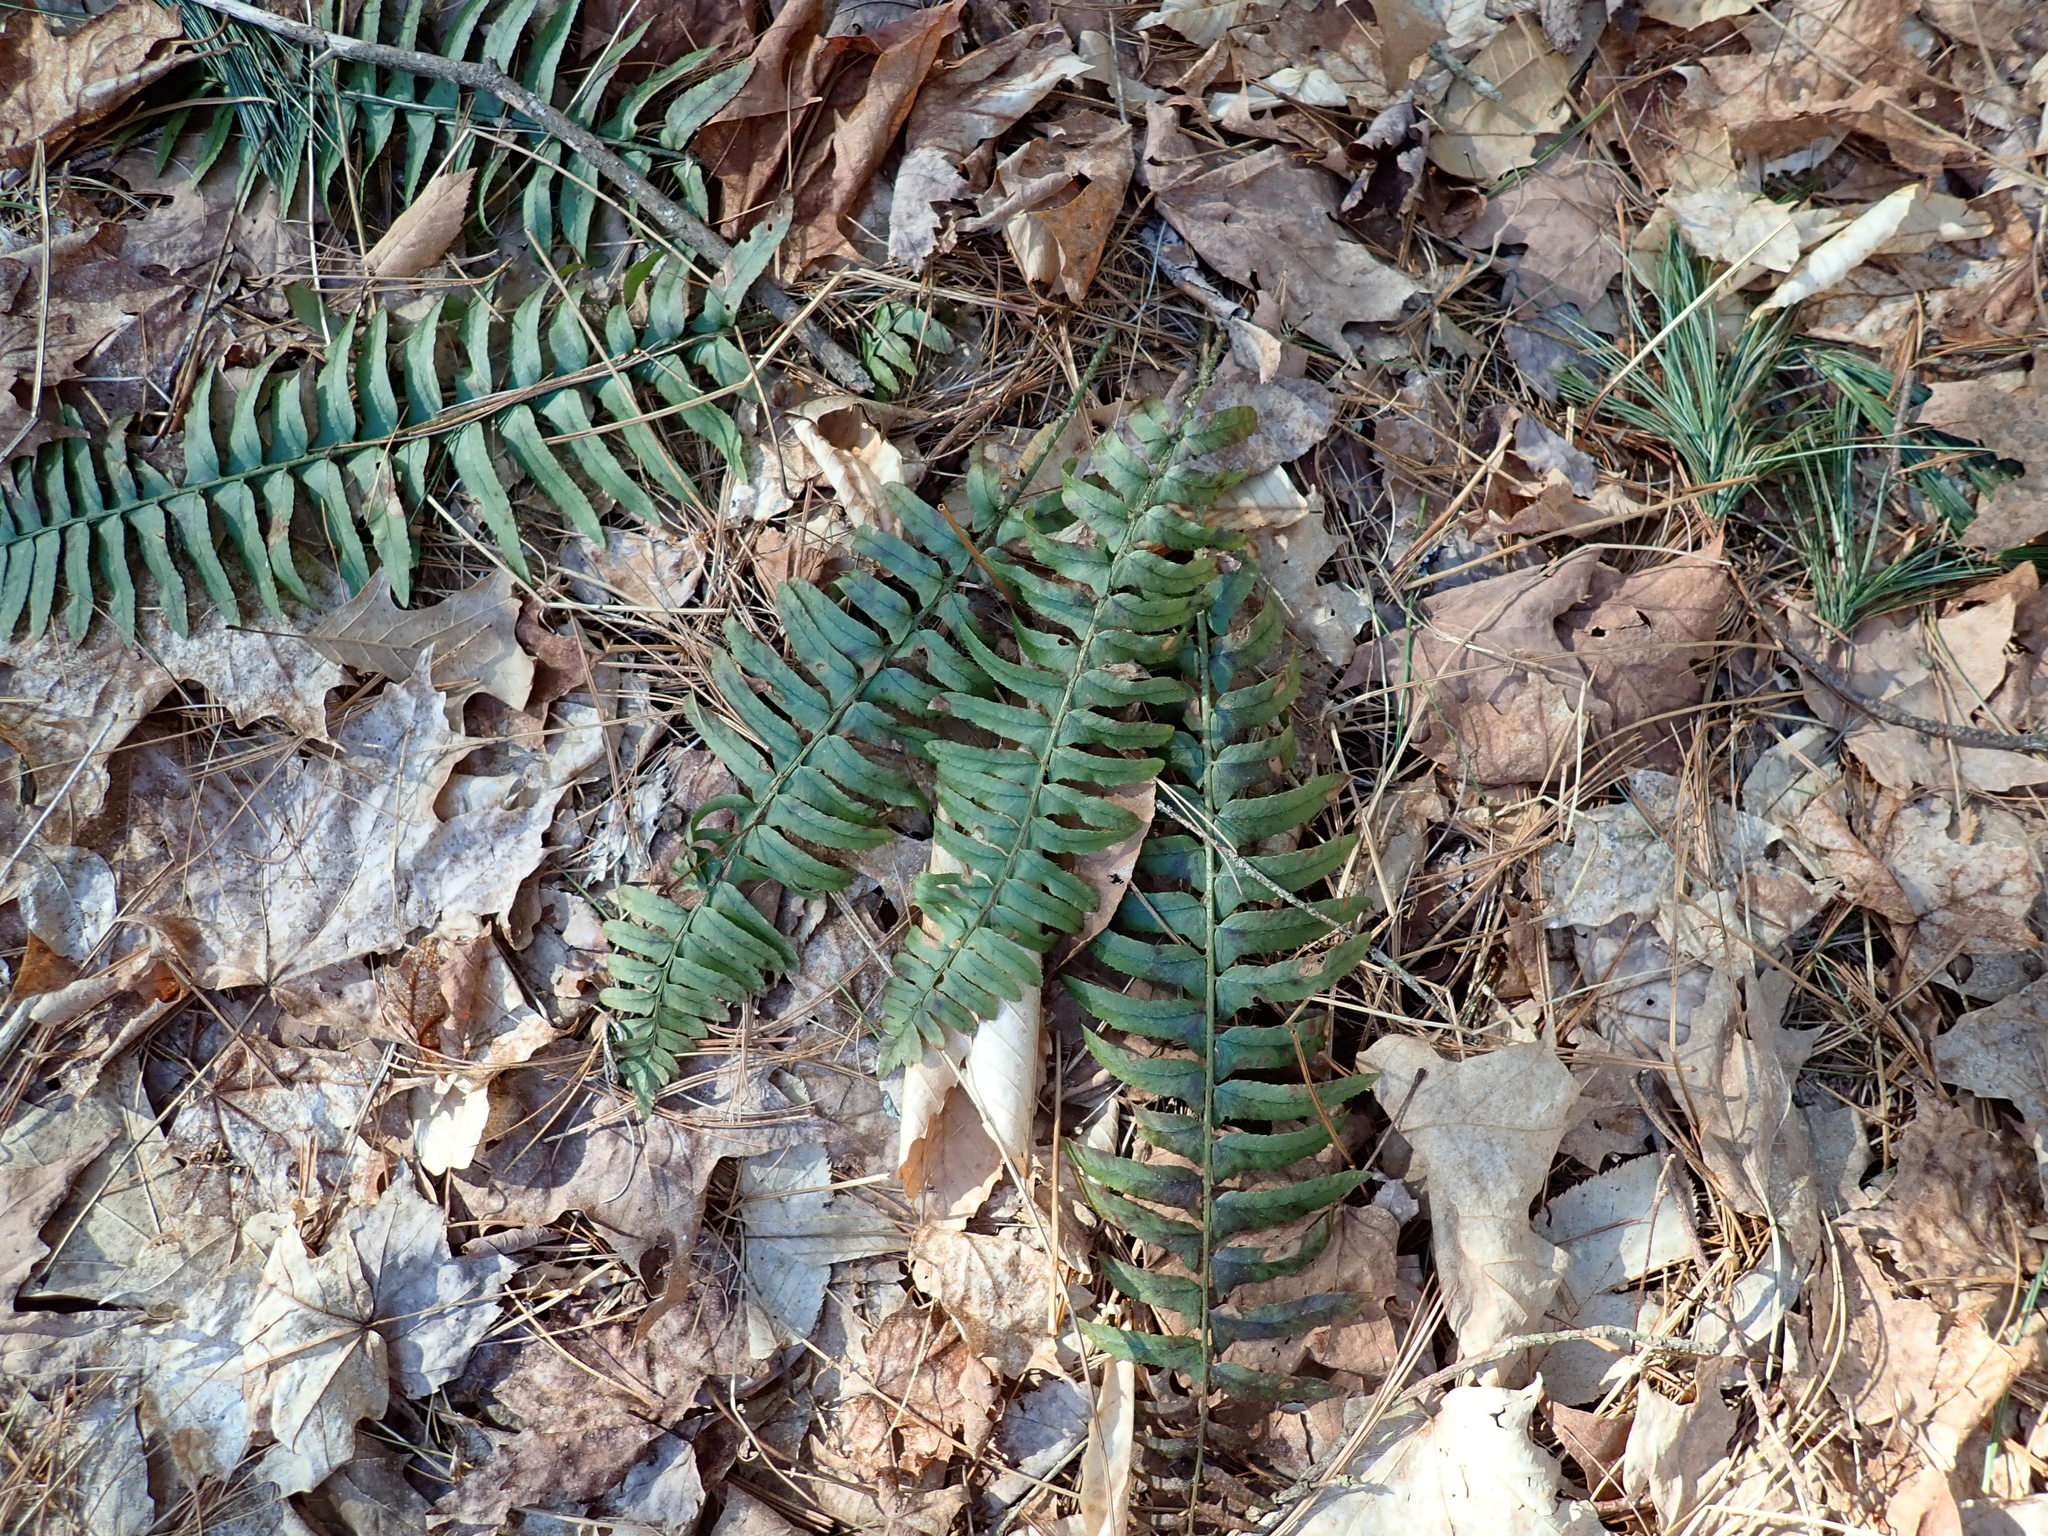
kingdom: Plantae
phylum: Tracheophyta
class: Polypodiopsida
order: Polypodiales
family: Dryopteridaceae
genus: Polystichum
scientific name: Polystichum acrostichoides
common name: Christmas fern
